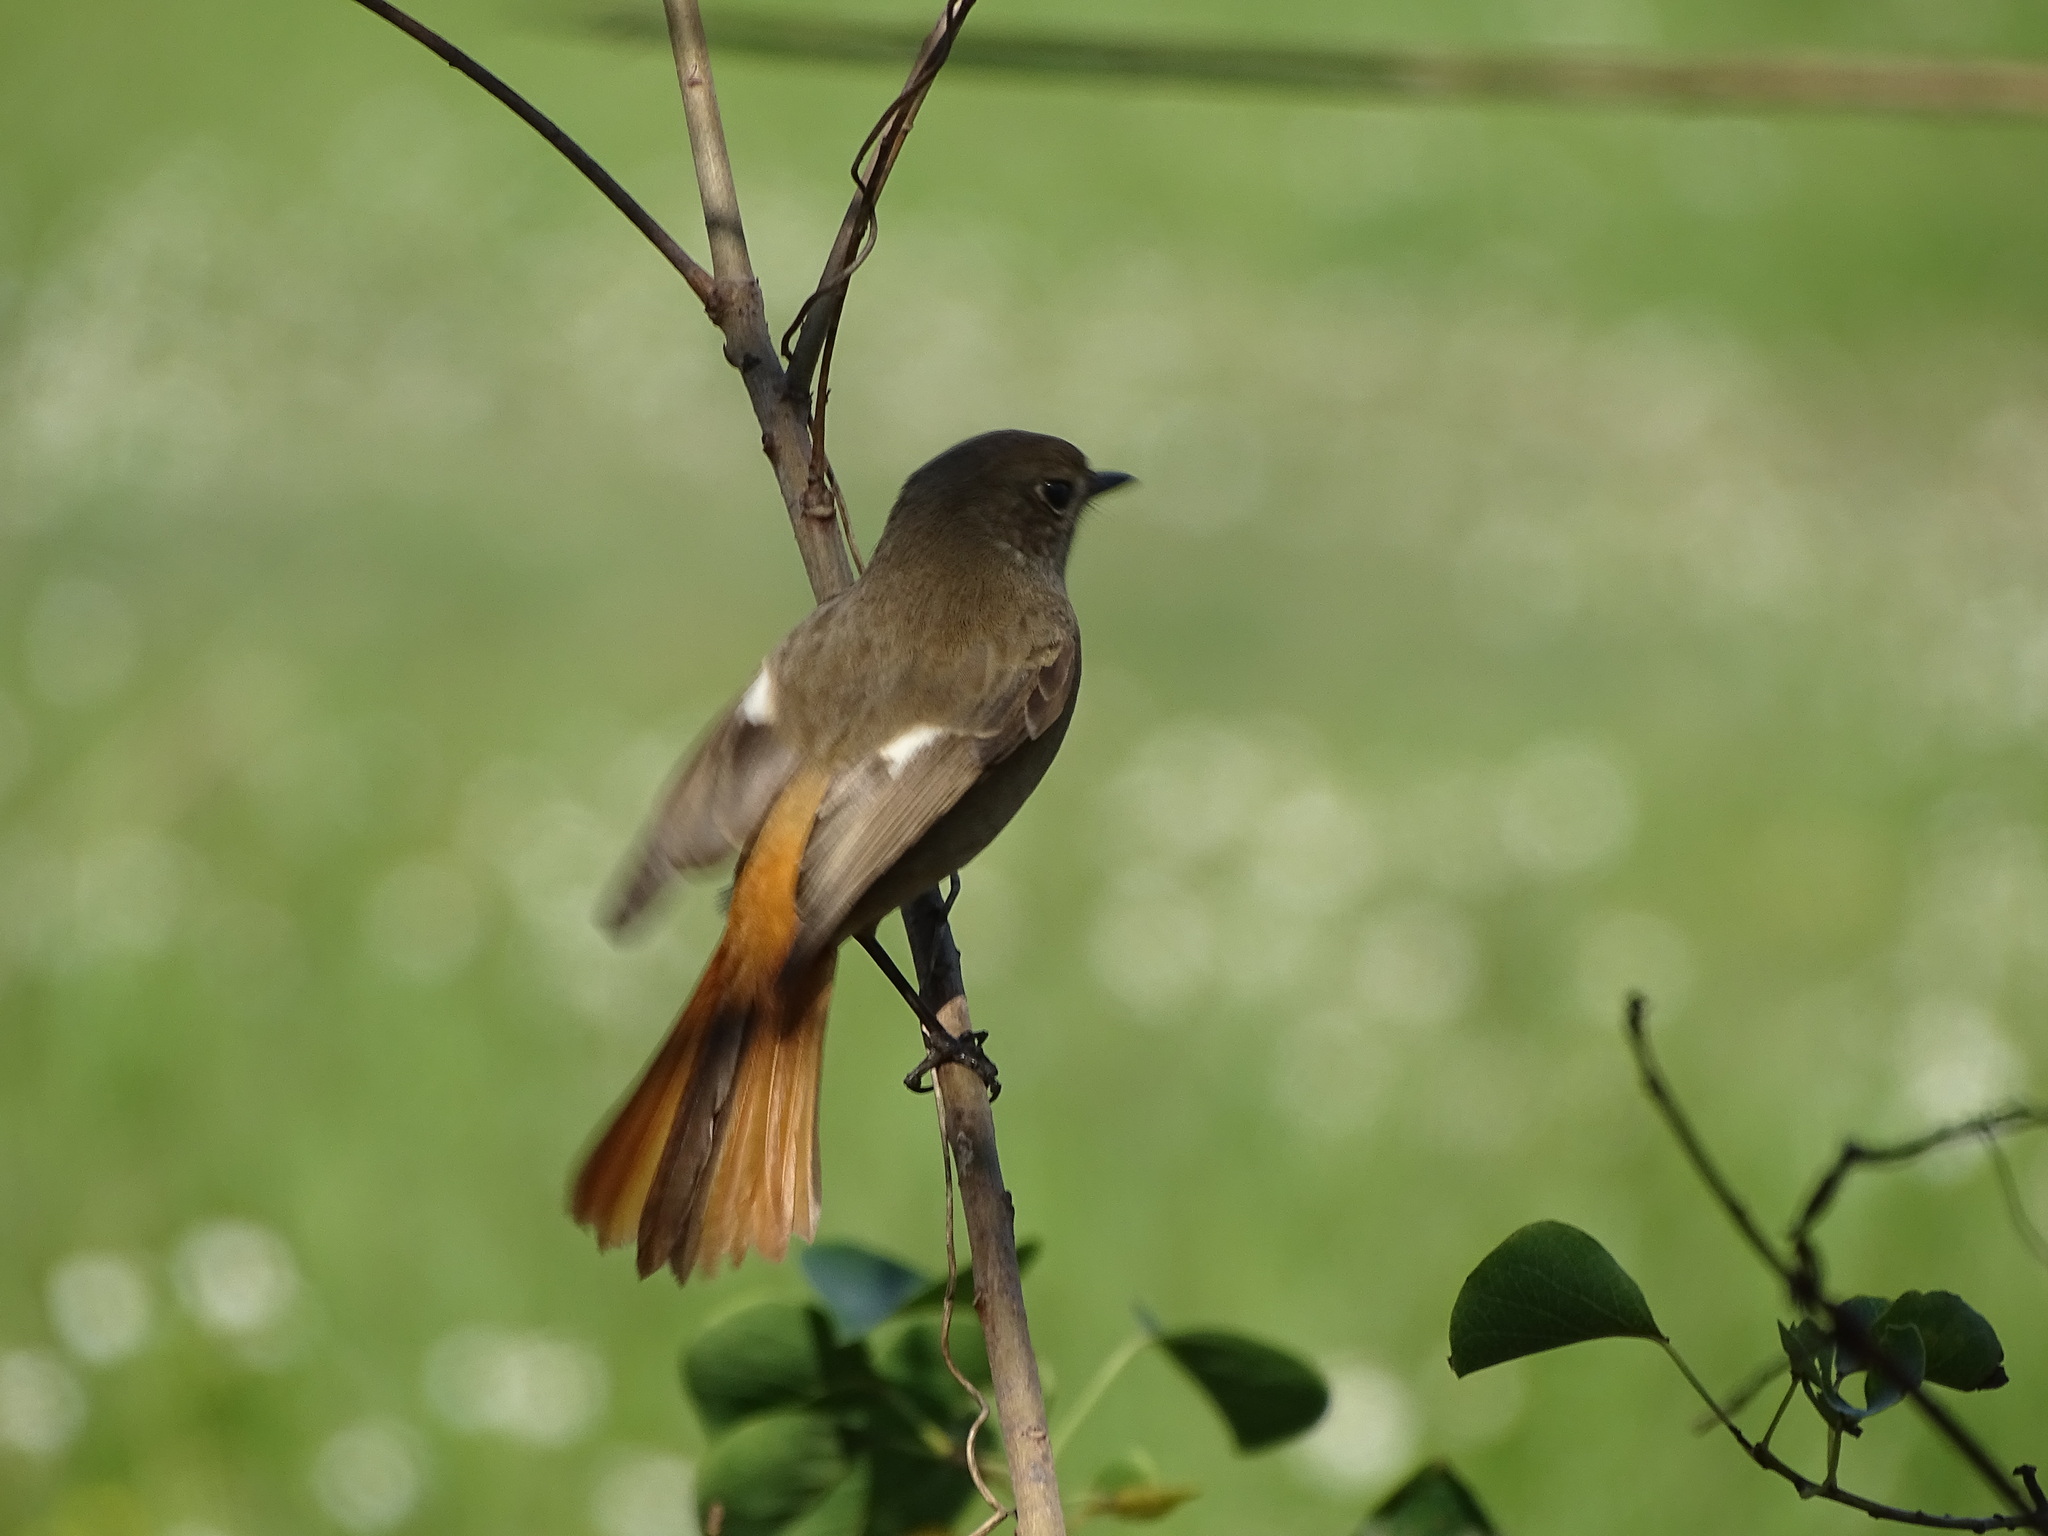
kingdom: Animalia
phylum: Chordata
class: Aves
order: Passeriformes
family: Muscicapidae
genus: Phoenicurus
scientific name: Phoenicurus auroreus
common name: Daurian redstart
